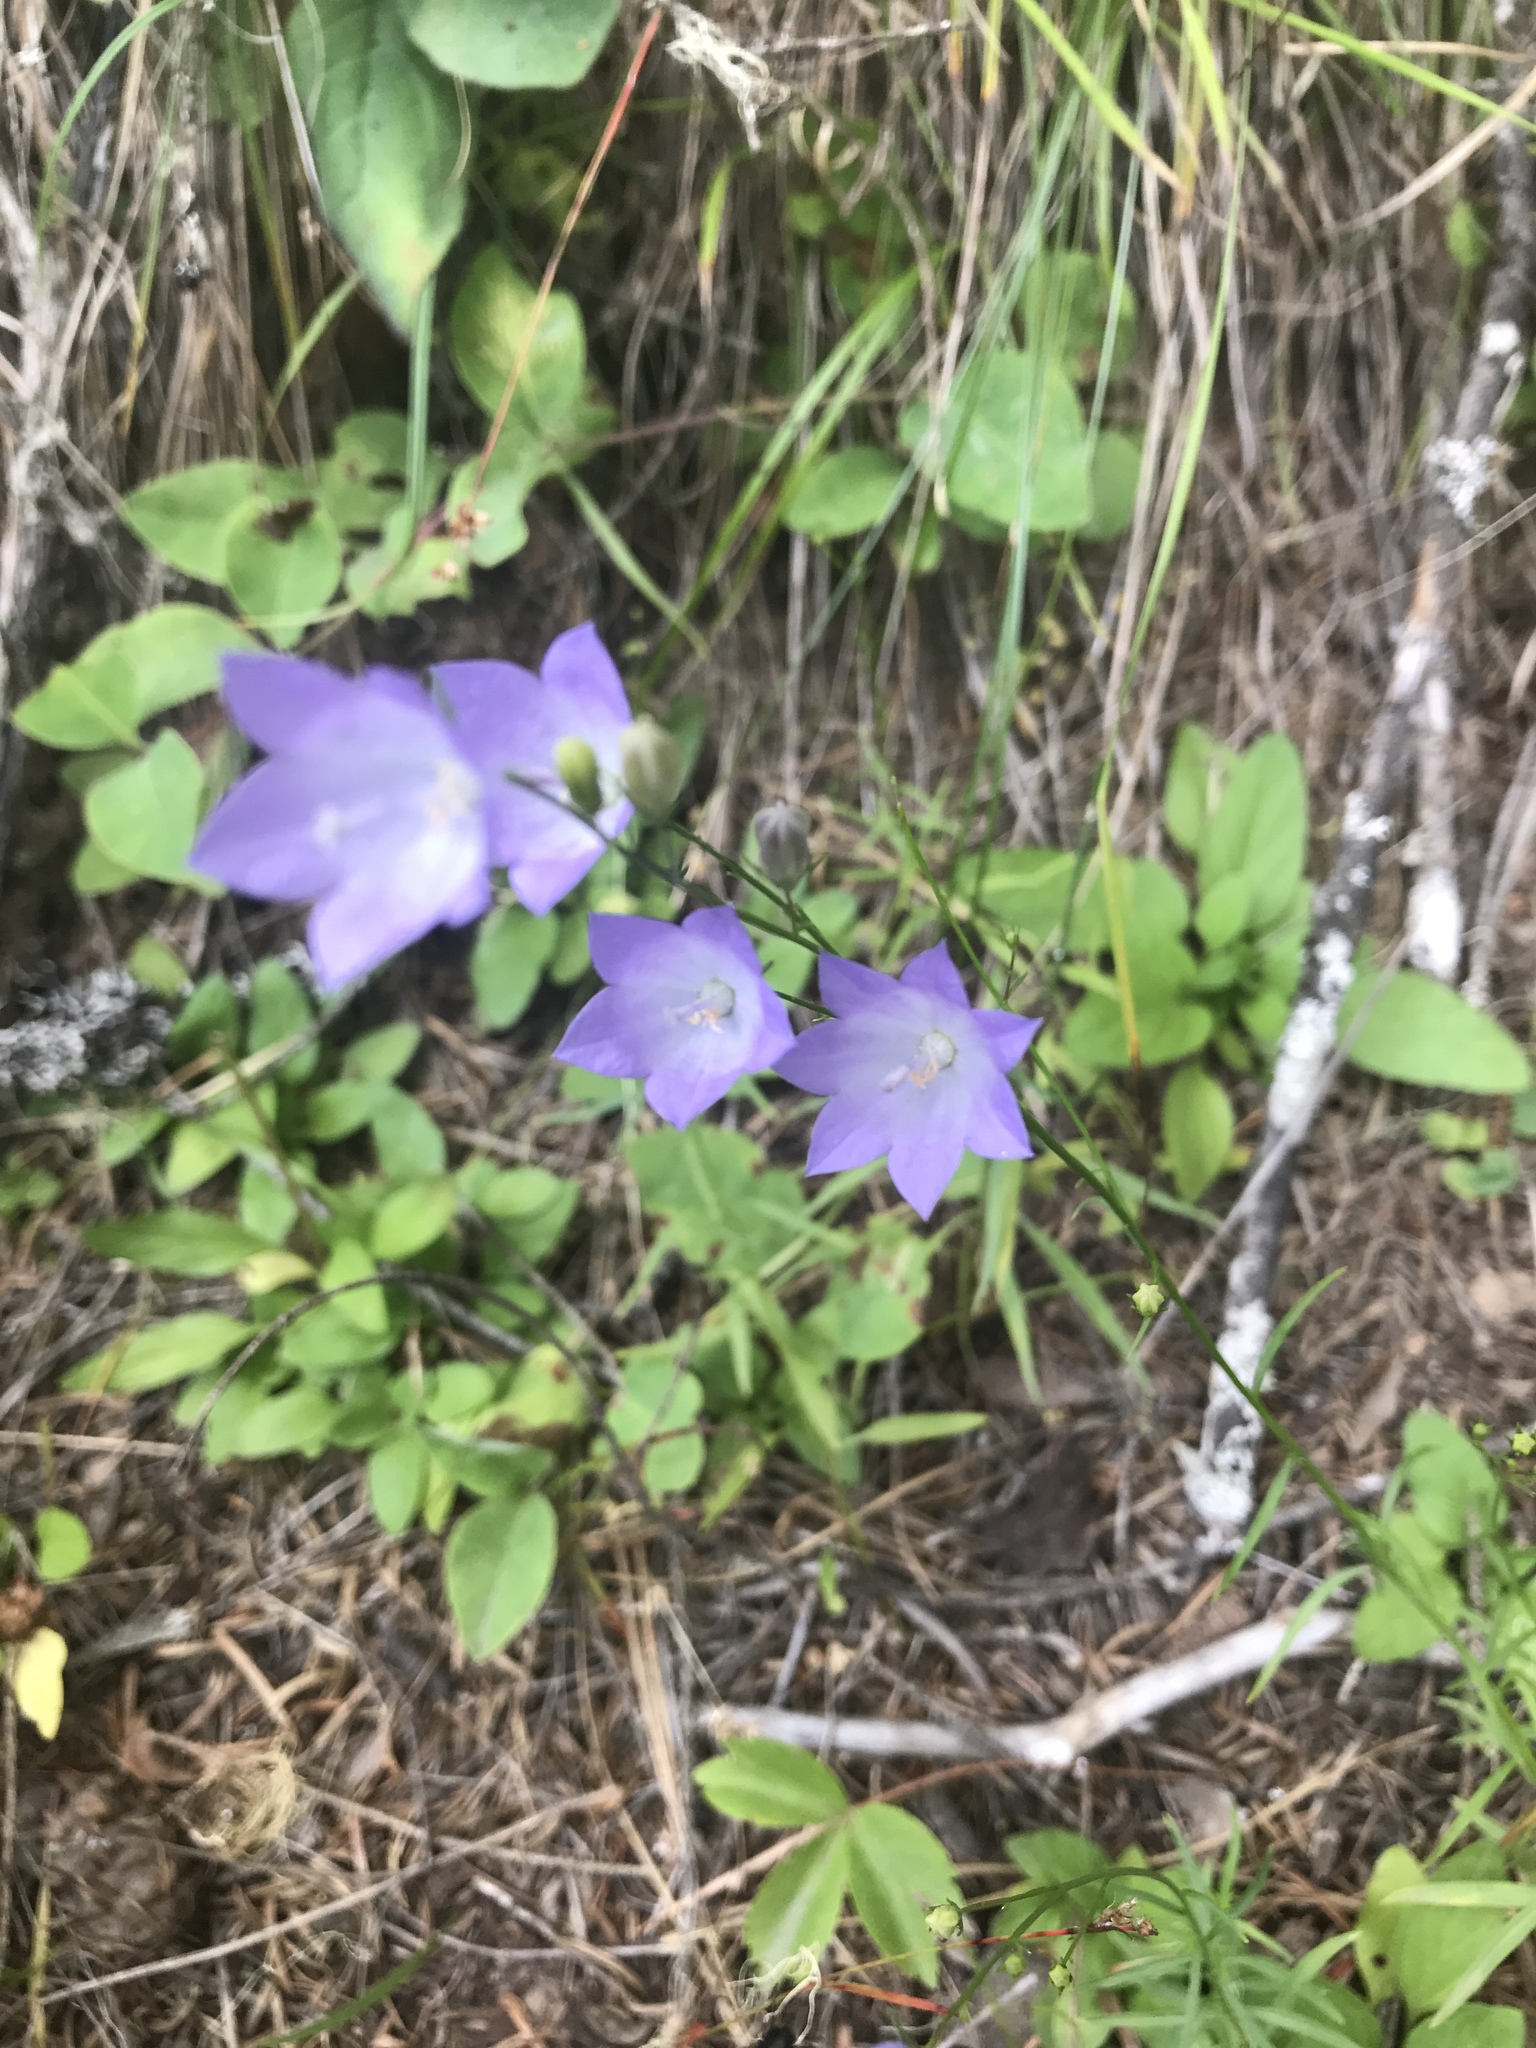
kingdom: Plantae
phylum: Tracheophyta
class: Magnoliopsida
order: Asterales
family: Campanulaceae
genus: Campanula
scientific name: Campanula petiolata
